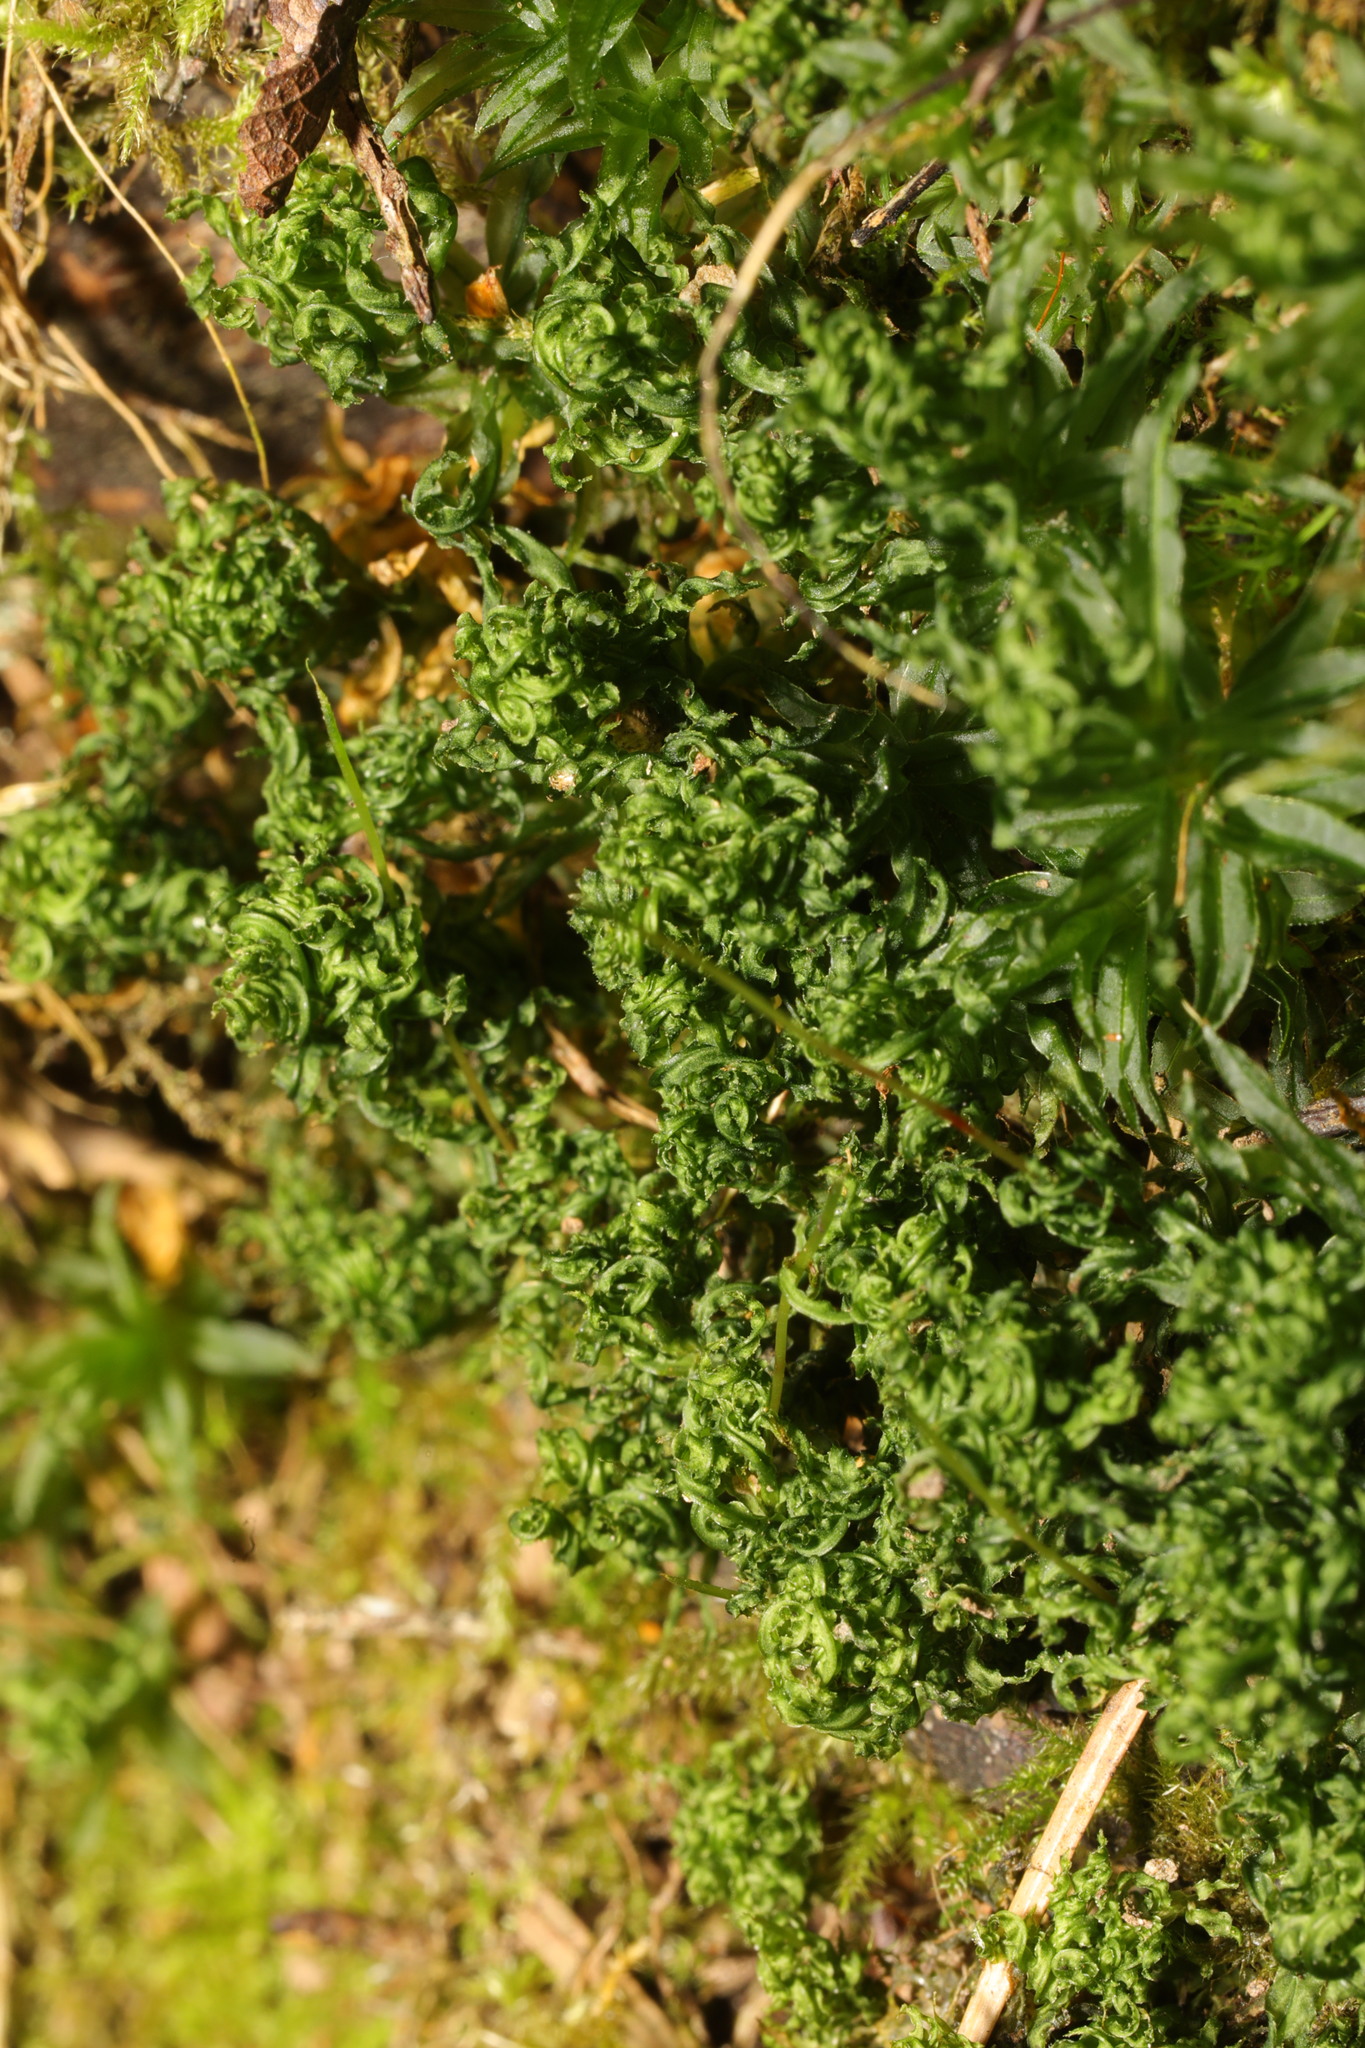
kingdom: Plantae
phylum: Bryophyta
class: Bryopsida
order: Bryales
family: Mniaceae
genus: Mnium
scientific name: Mnium hornum
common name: Swan's-neck leafy moss
